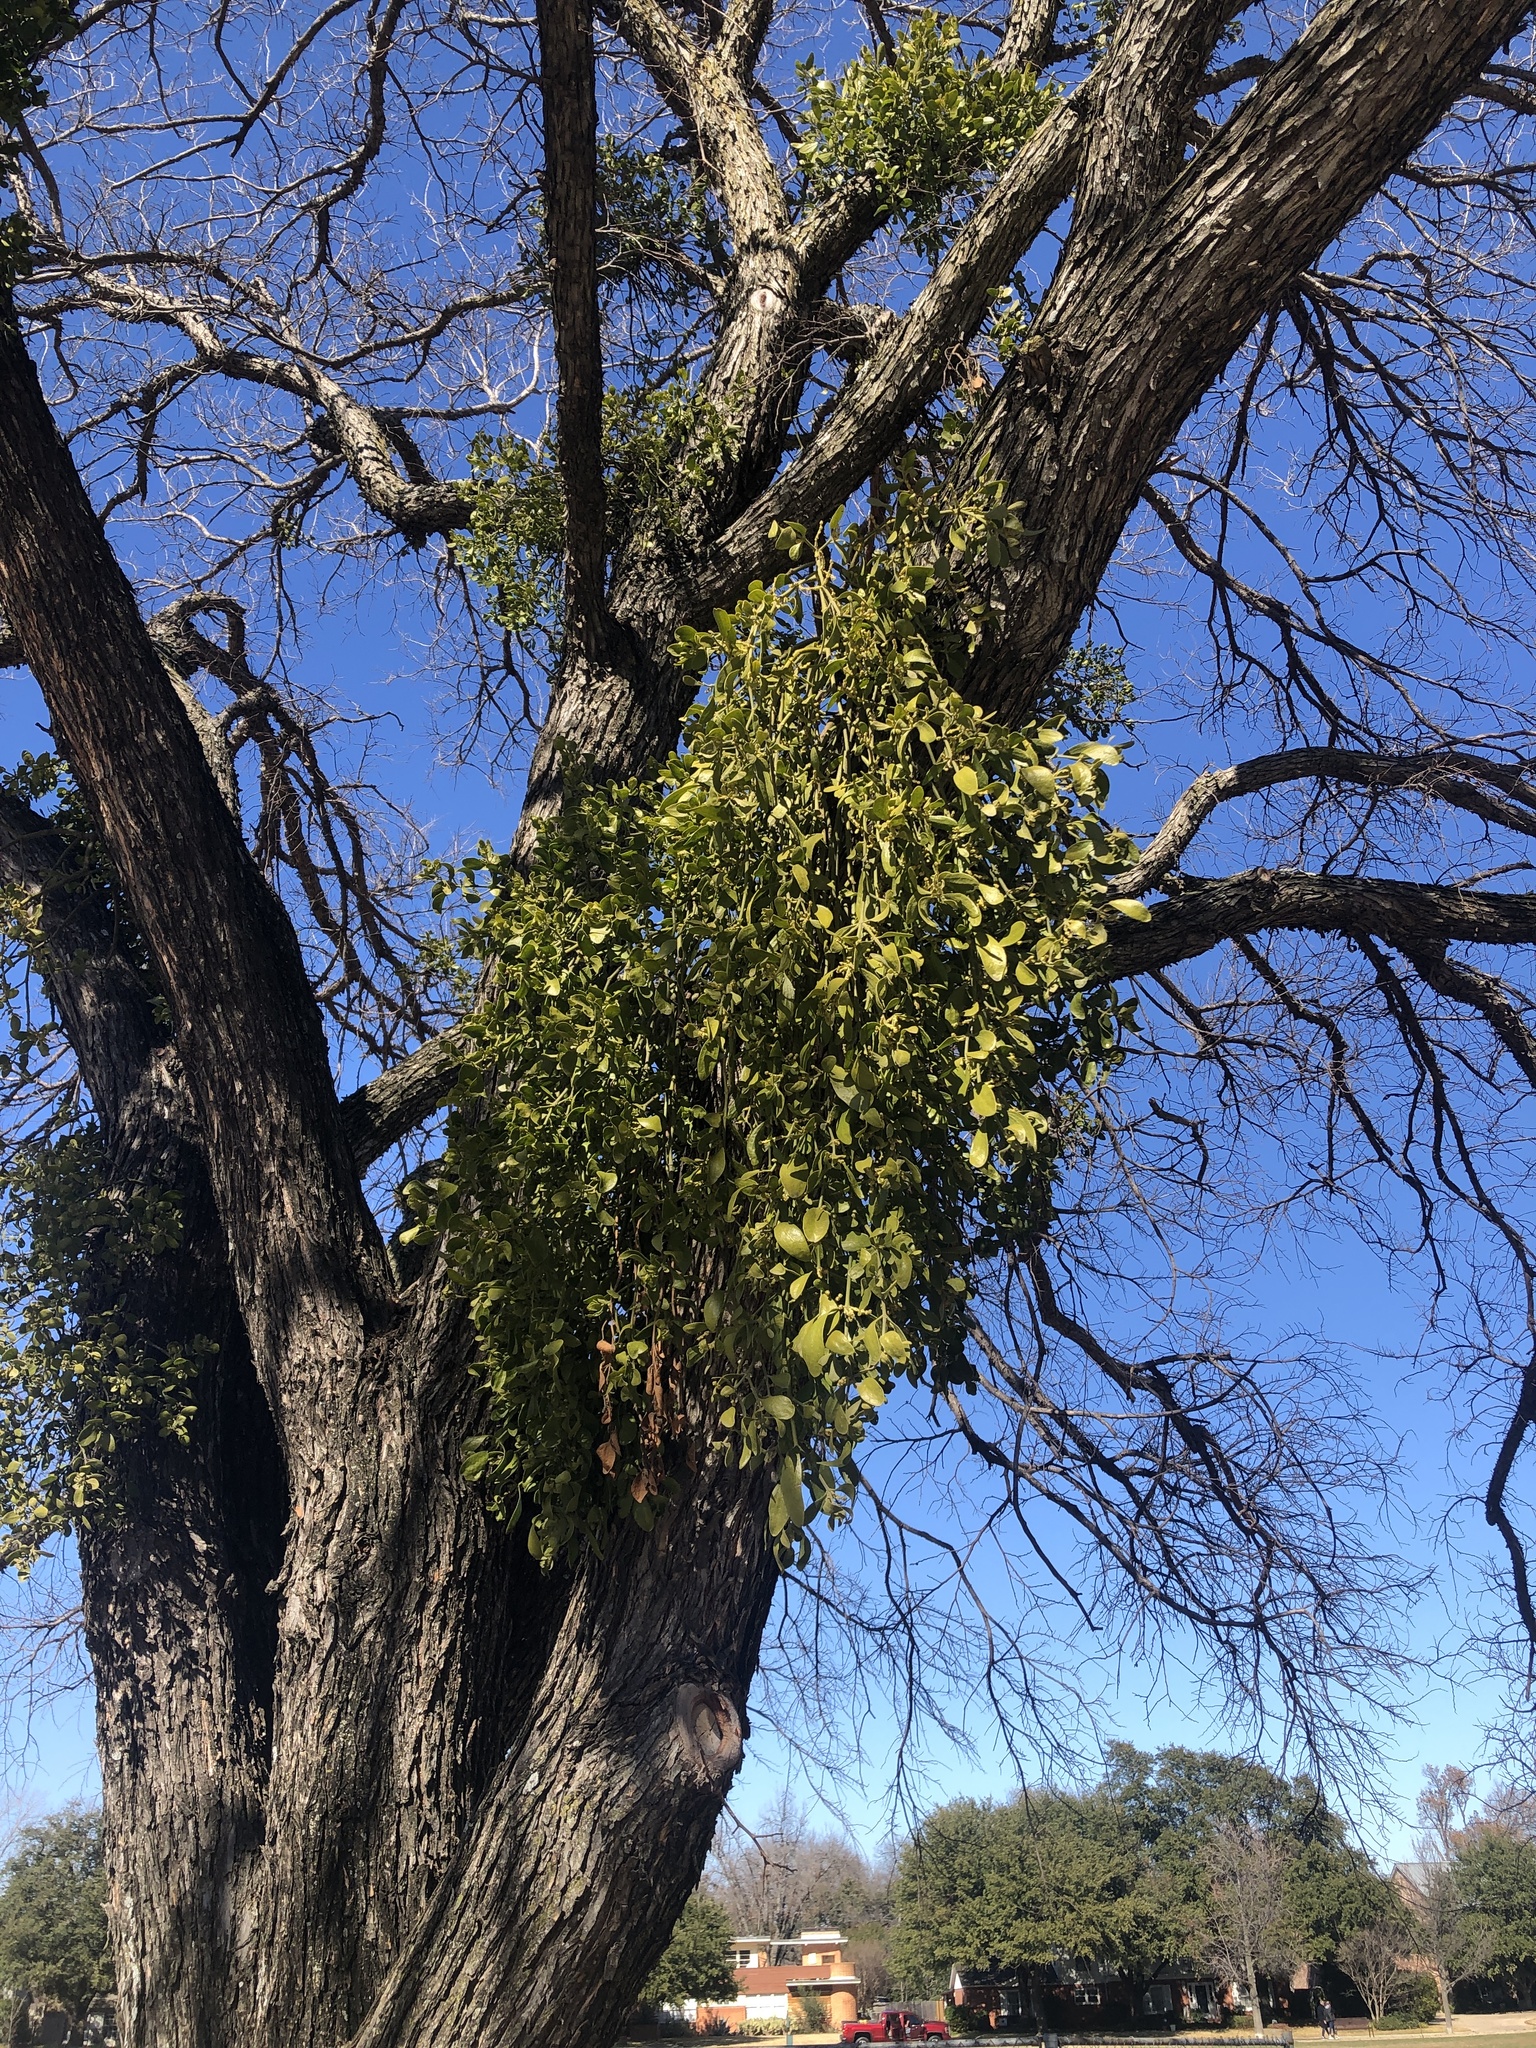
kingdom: Plantae
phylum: Tracheophyta
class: Magnoliopsida
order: Santalales
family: Viscaceae
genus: Phoradendron
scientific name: Phoradendron leucarpum
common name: Pacific mistletoe
